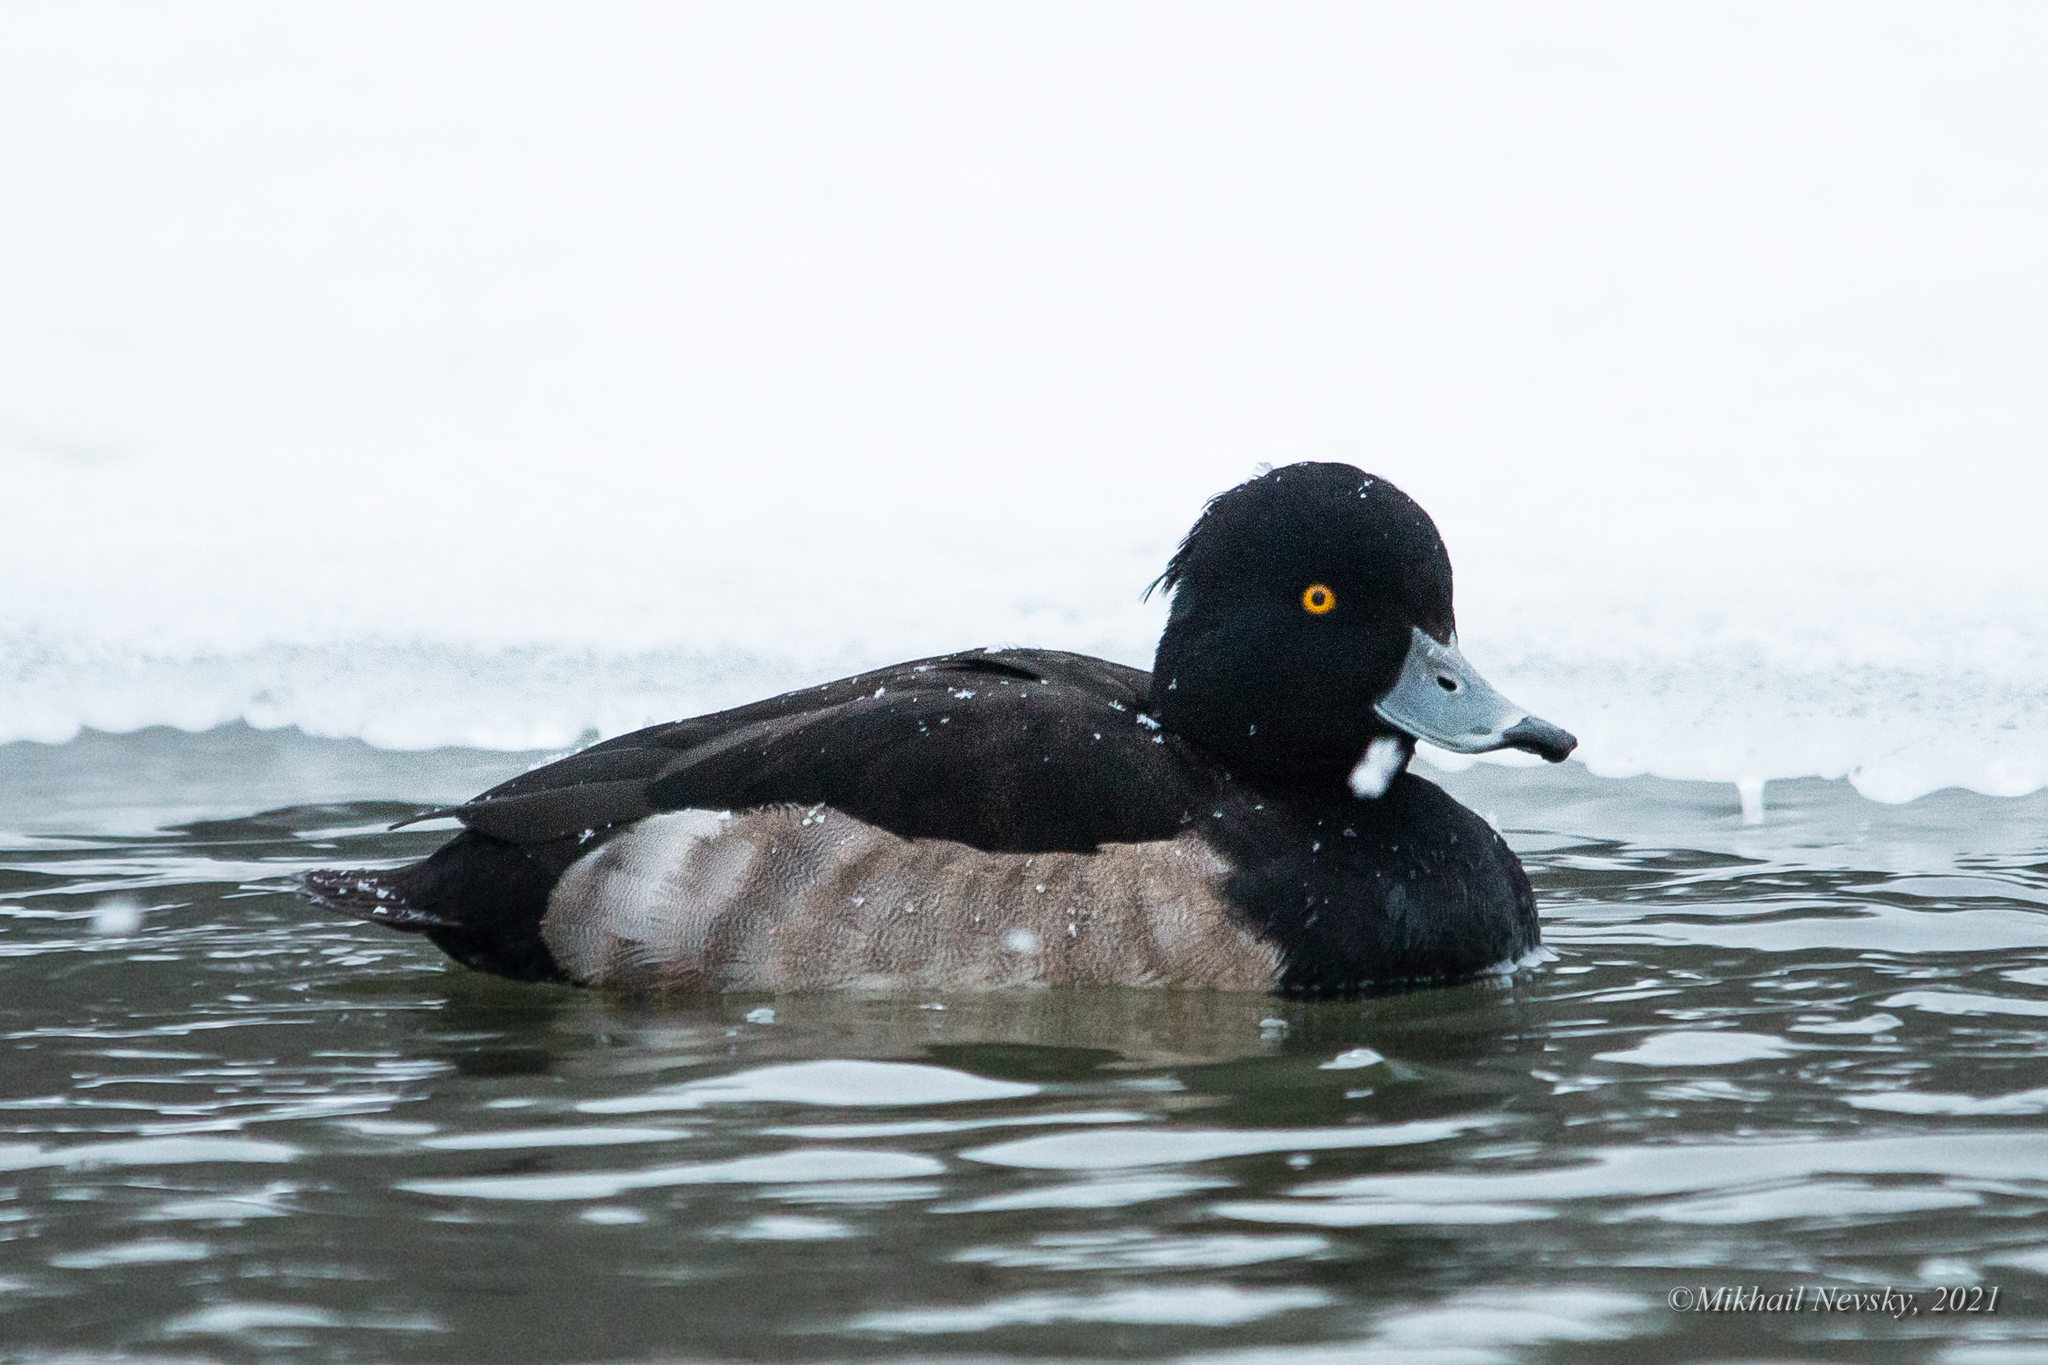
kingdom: Animalia
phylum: Chordata
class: Aves
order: Anseriformes
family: Anatidae
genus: Aythya
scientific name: Aythya fuligula
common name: Tufted duck
